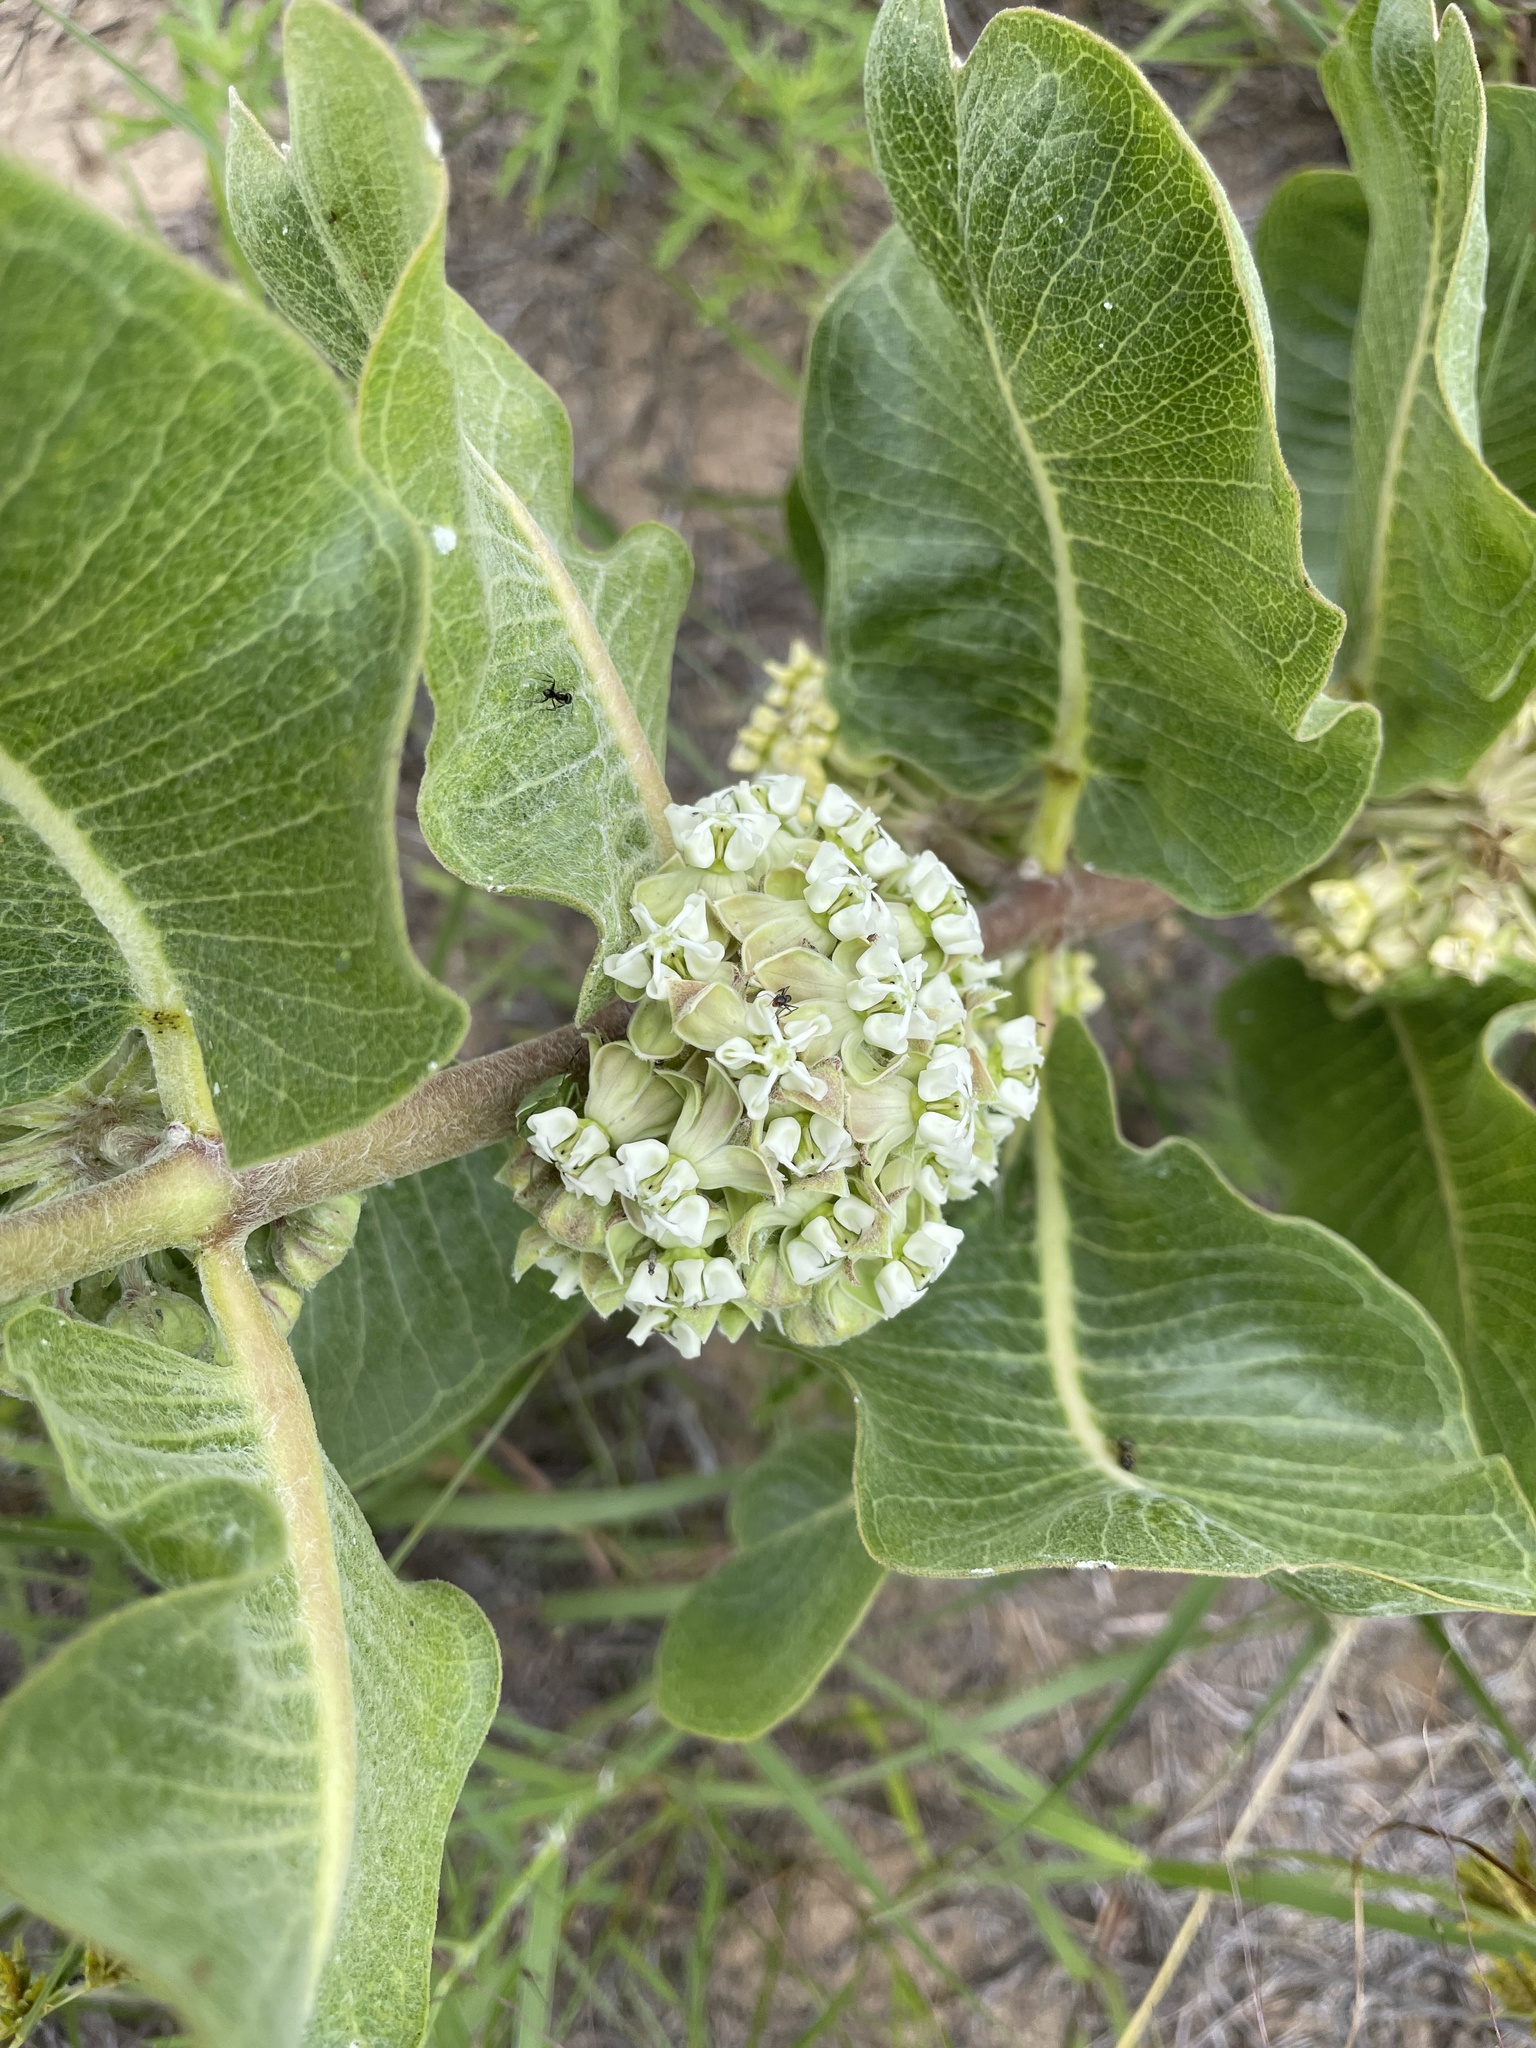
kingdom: Plantae
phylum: Tracheophyta
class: Magnoliopsida
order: Gentianales
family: Apocynaceae
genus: Asclepias
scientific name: Asclepias arenaria
